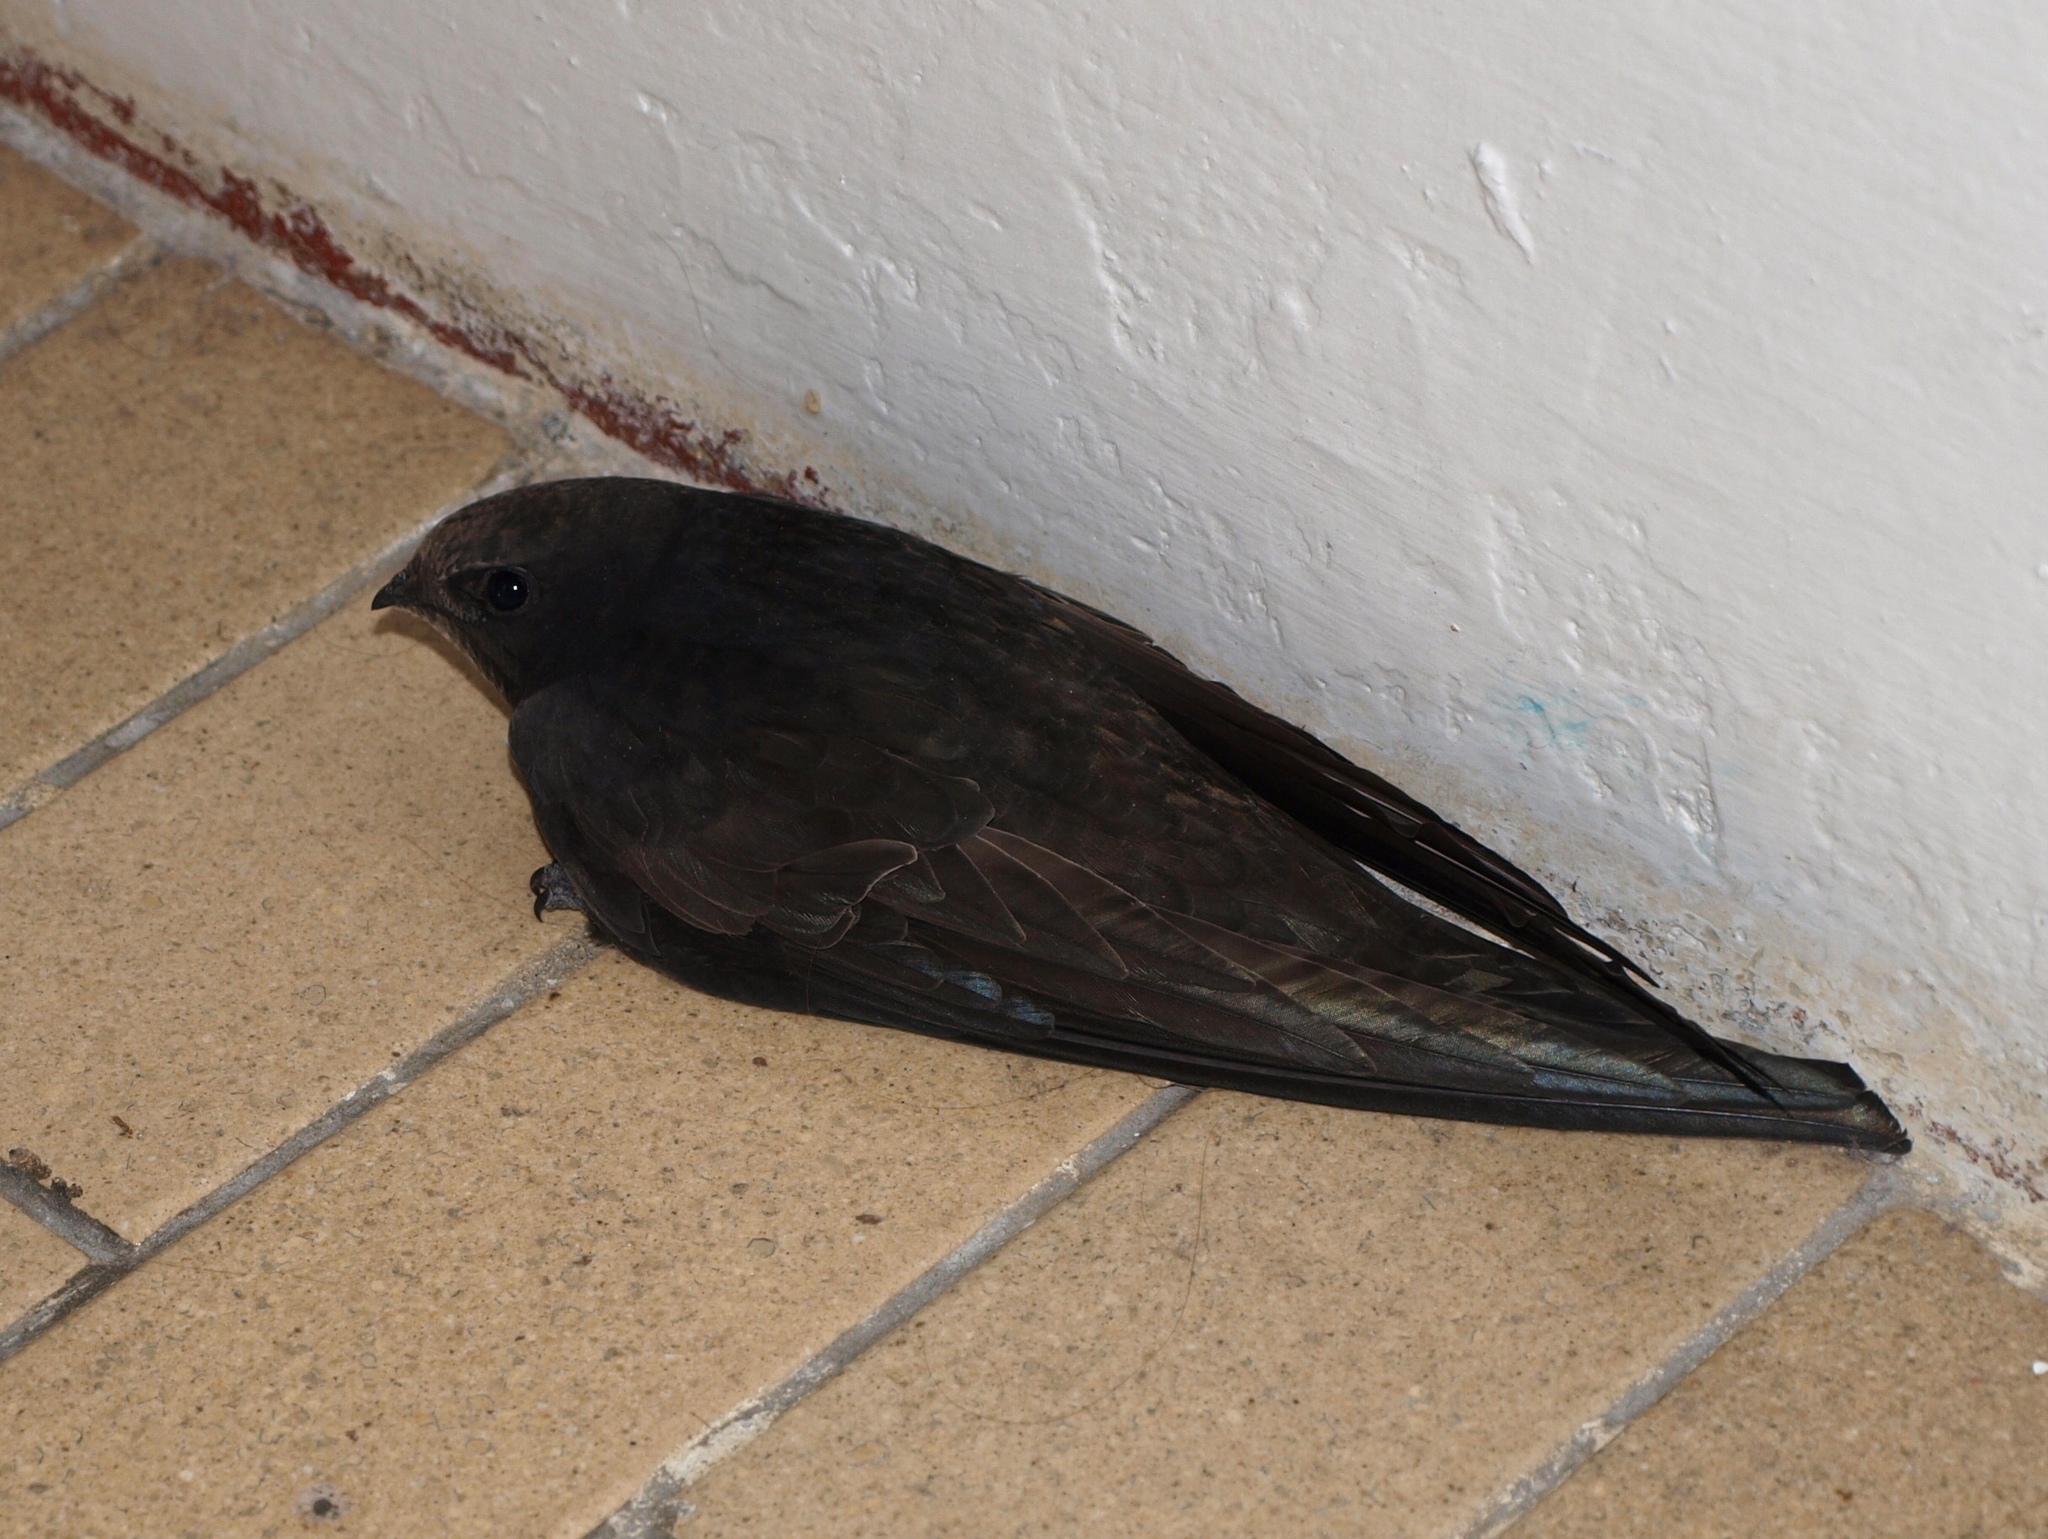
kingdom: Animalia
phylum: Chordata
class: Aves
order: Apodiformes
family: Apodidae
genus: Apus
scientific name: Apus apus
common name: Common swift
